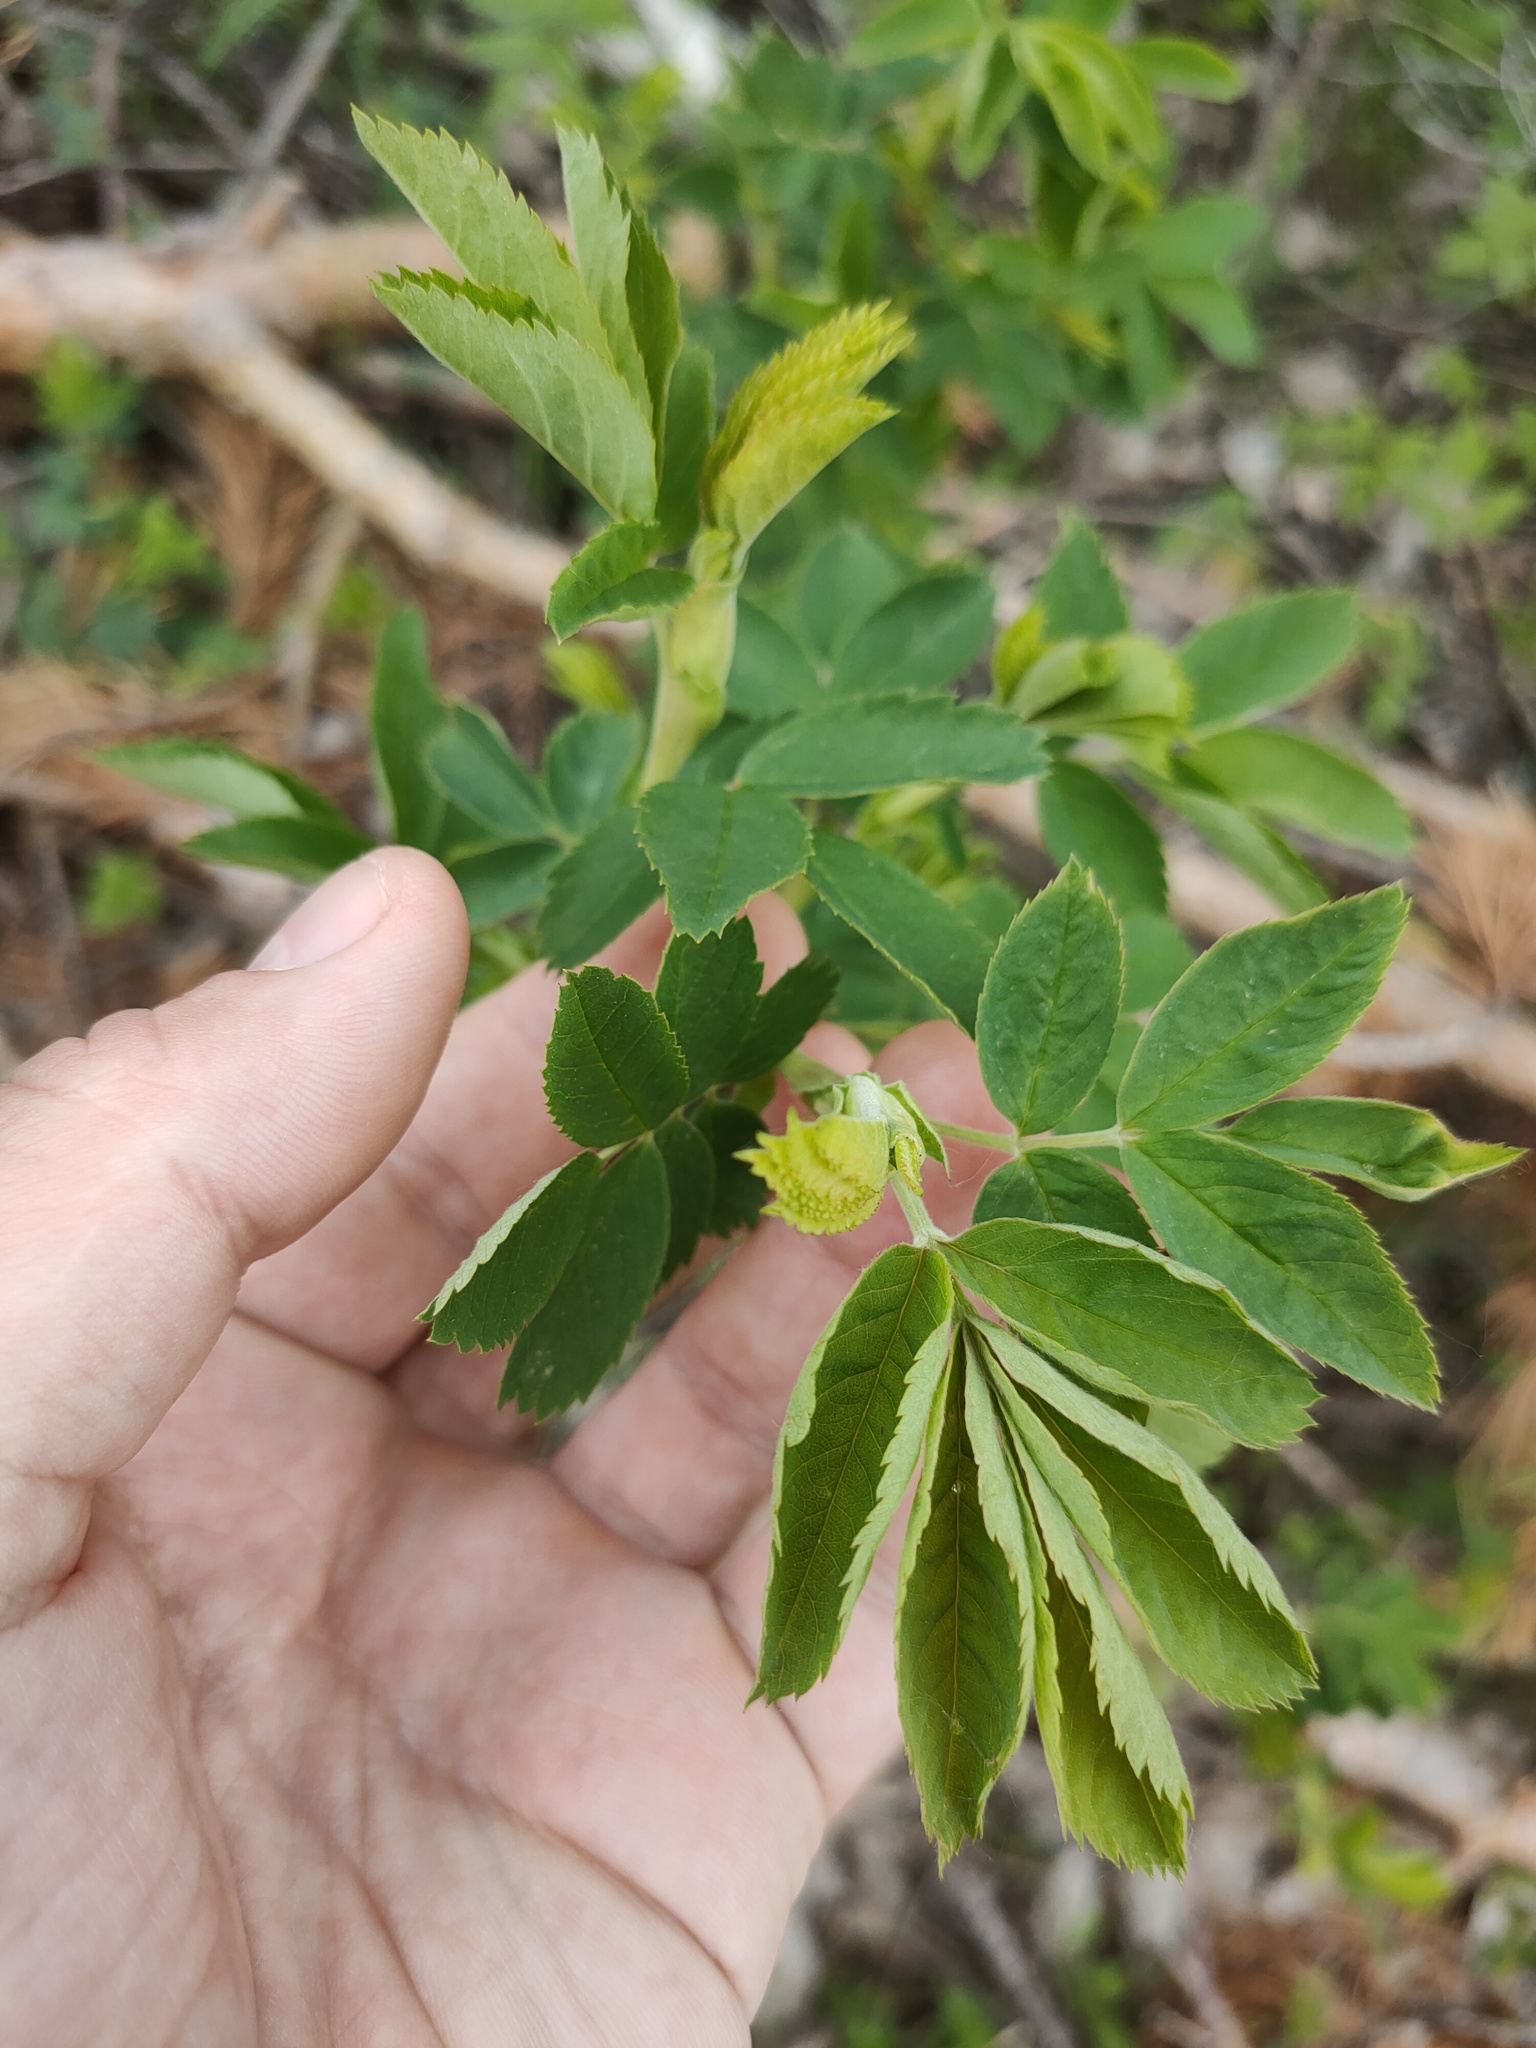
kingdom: Plantae
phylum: Tracheophyta
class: Magnoliopsida
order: Rosales
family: Rosaceae
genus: Rosa
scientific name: Rosa majalis
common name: Cinnamon rose
